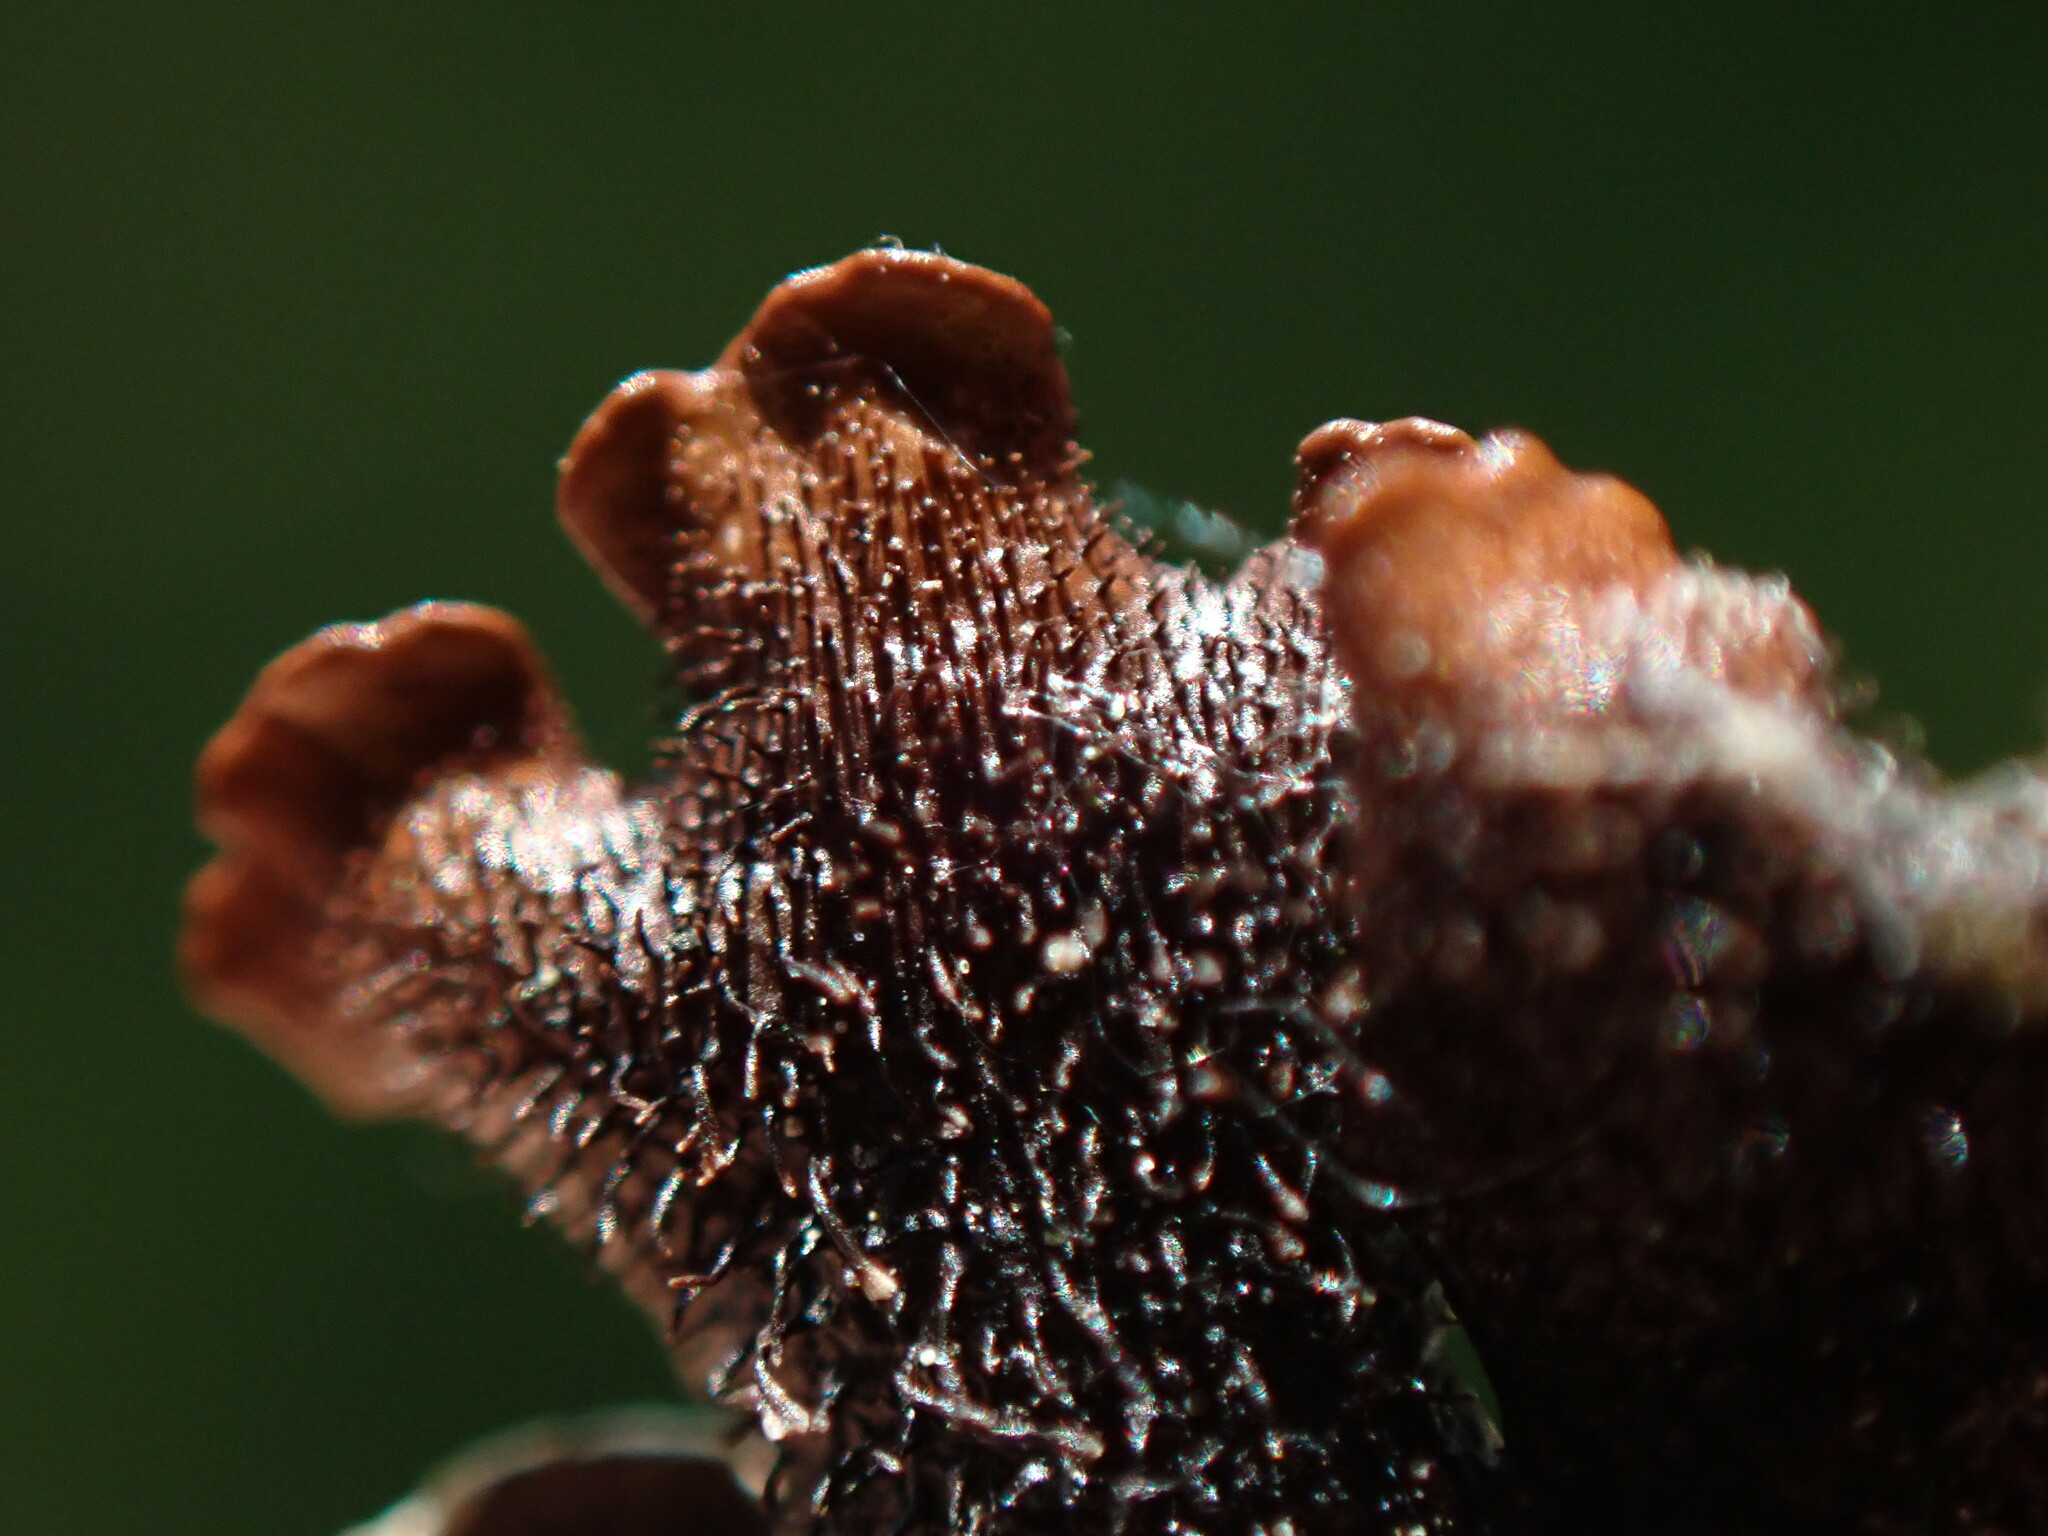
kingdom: Fungi
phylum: Ascomycota
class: Lecanoromycetes
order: Lecanorales
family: Parmeliaceae
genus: Punctelia
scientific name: Punctelia jeckeri
